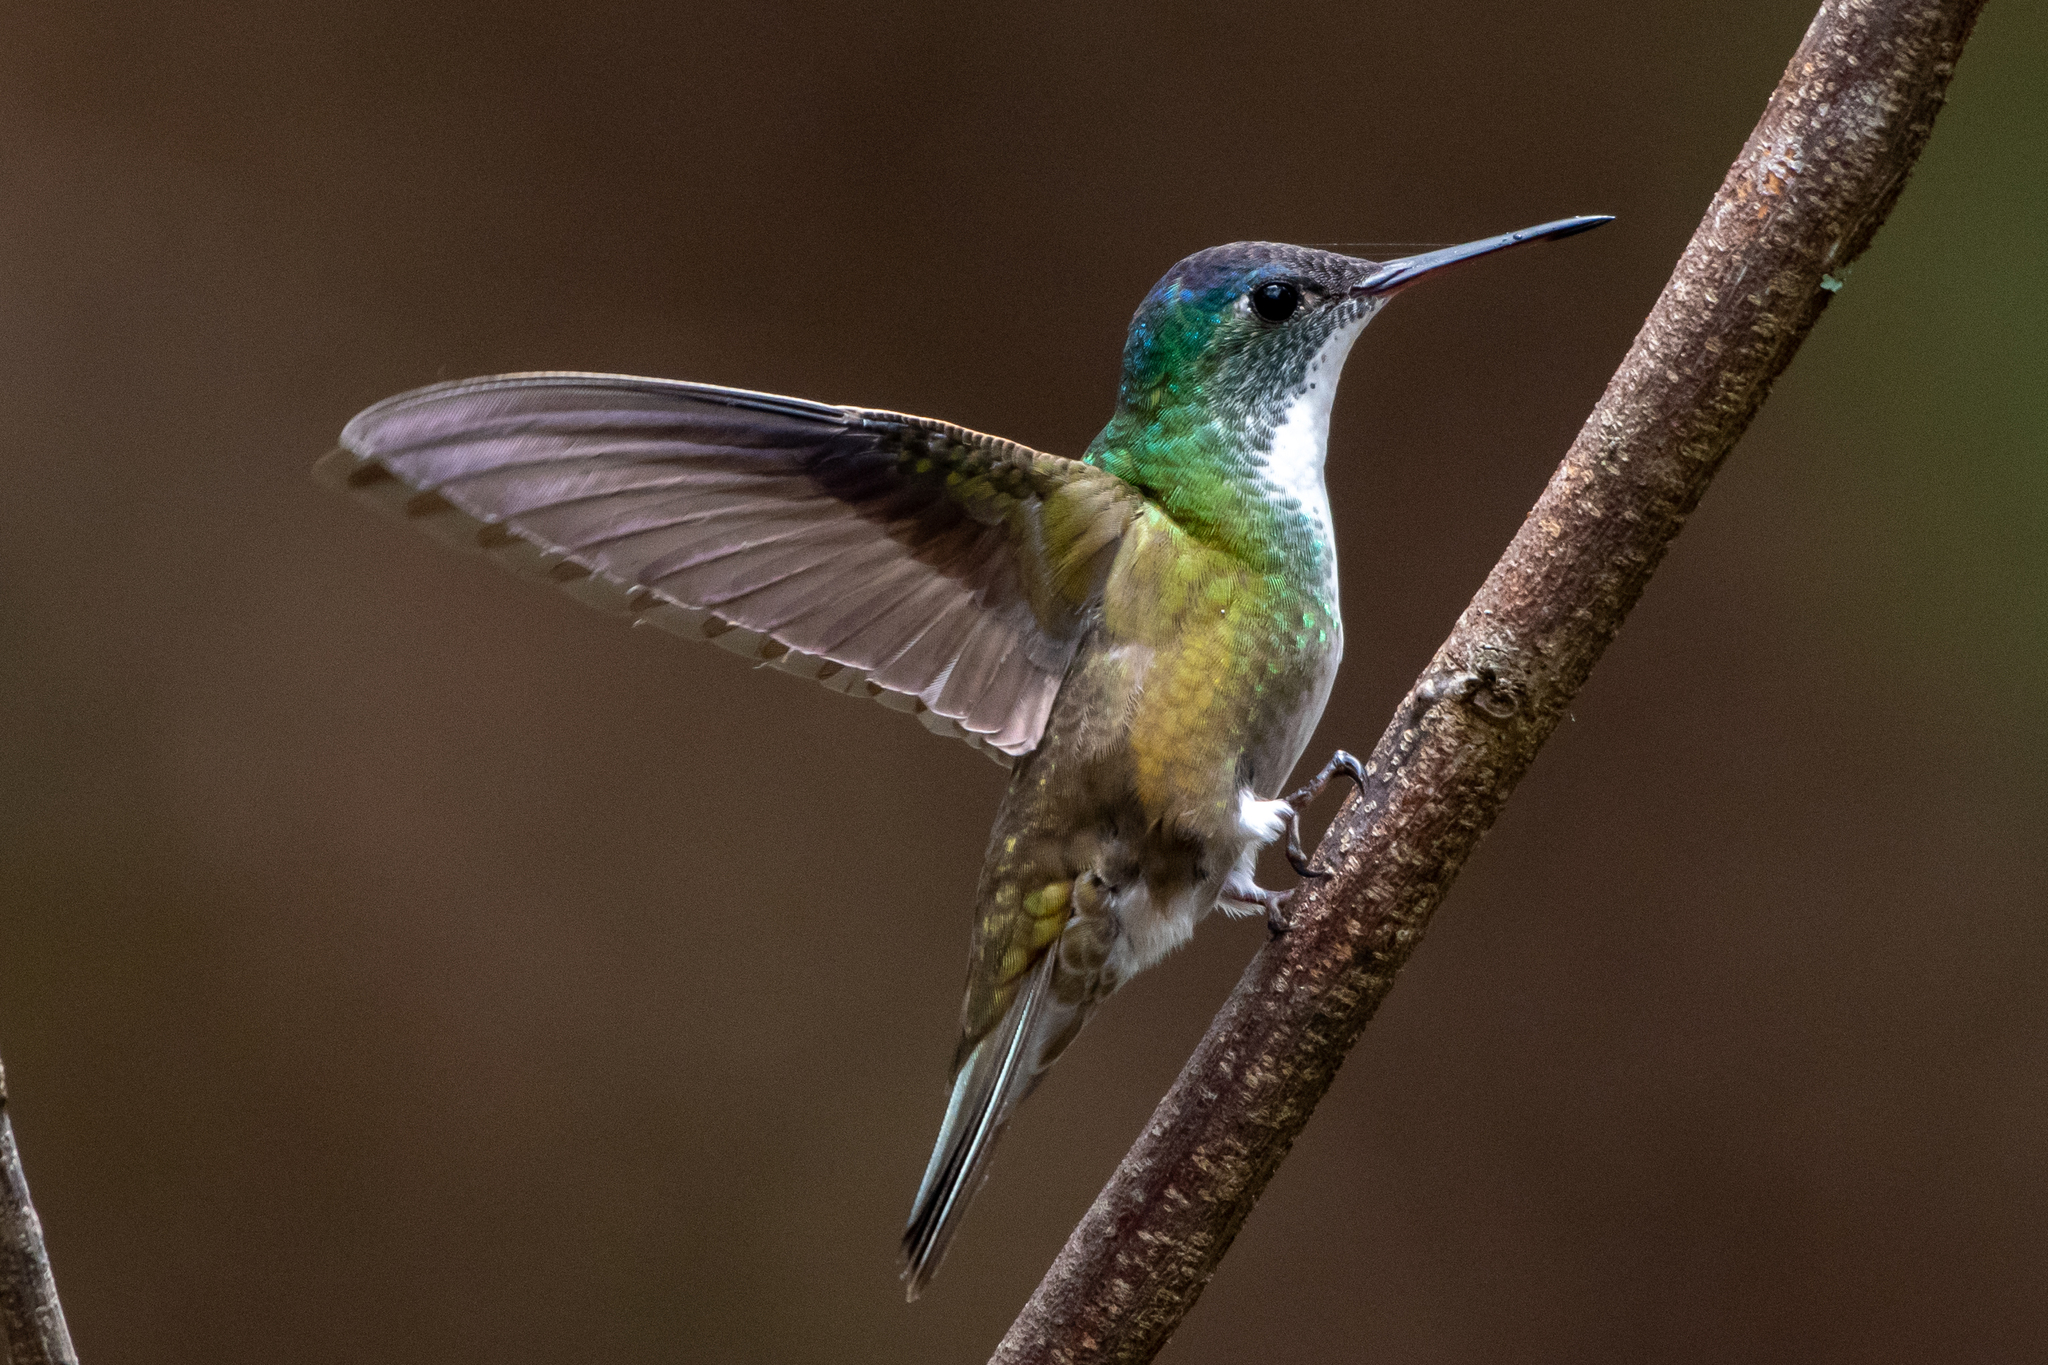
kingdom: Animalia
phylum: Chordata
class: Aves
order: Apodiformes
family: Trochilidae
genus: Saucerottia
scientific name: Saucerottia cyanocephala
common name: Azure-crowned hummingbird
